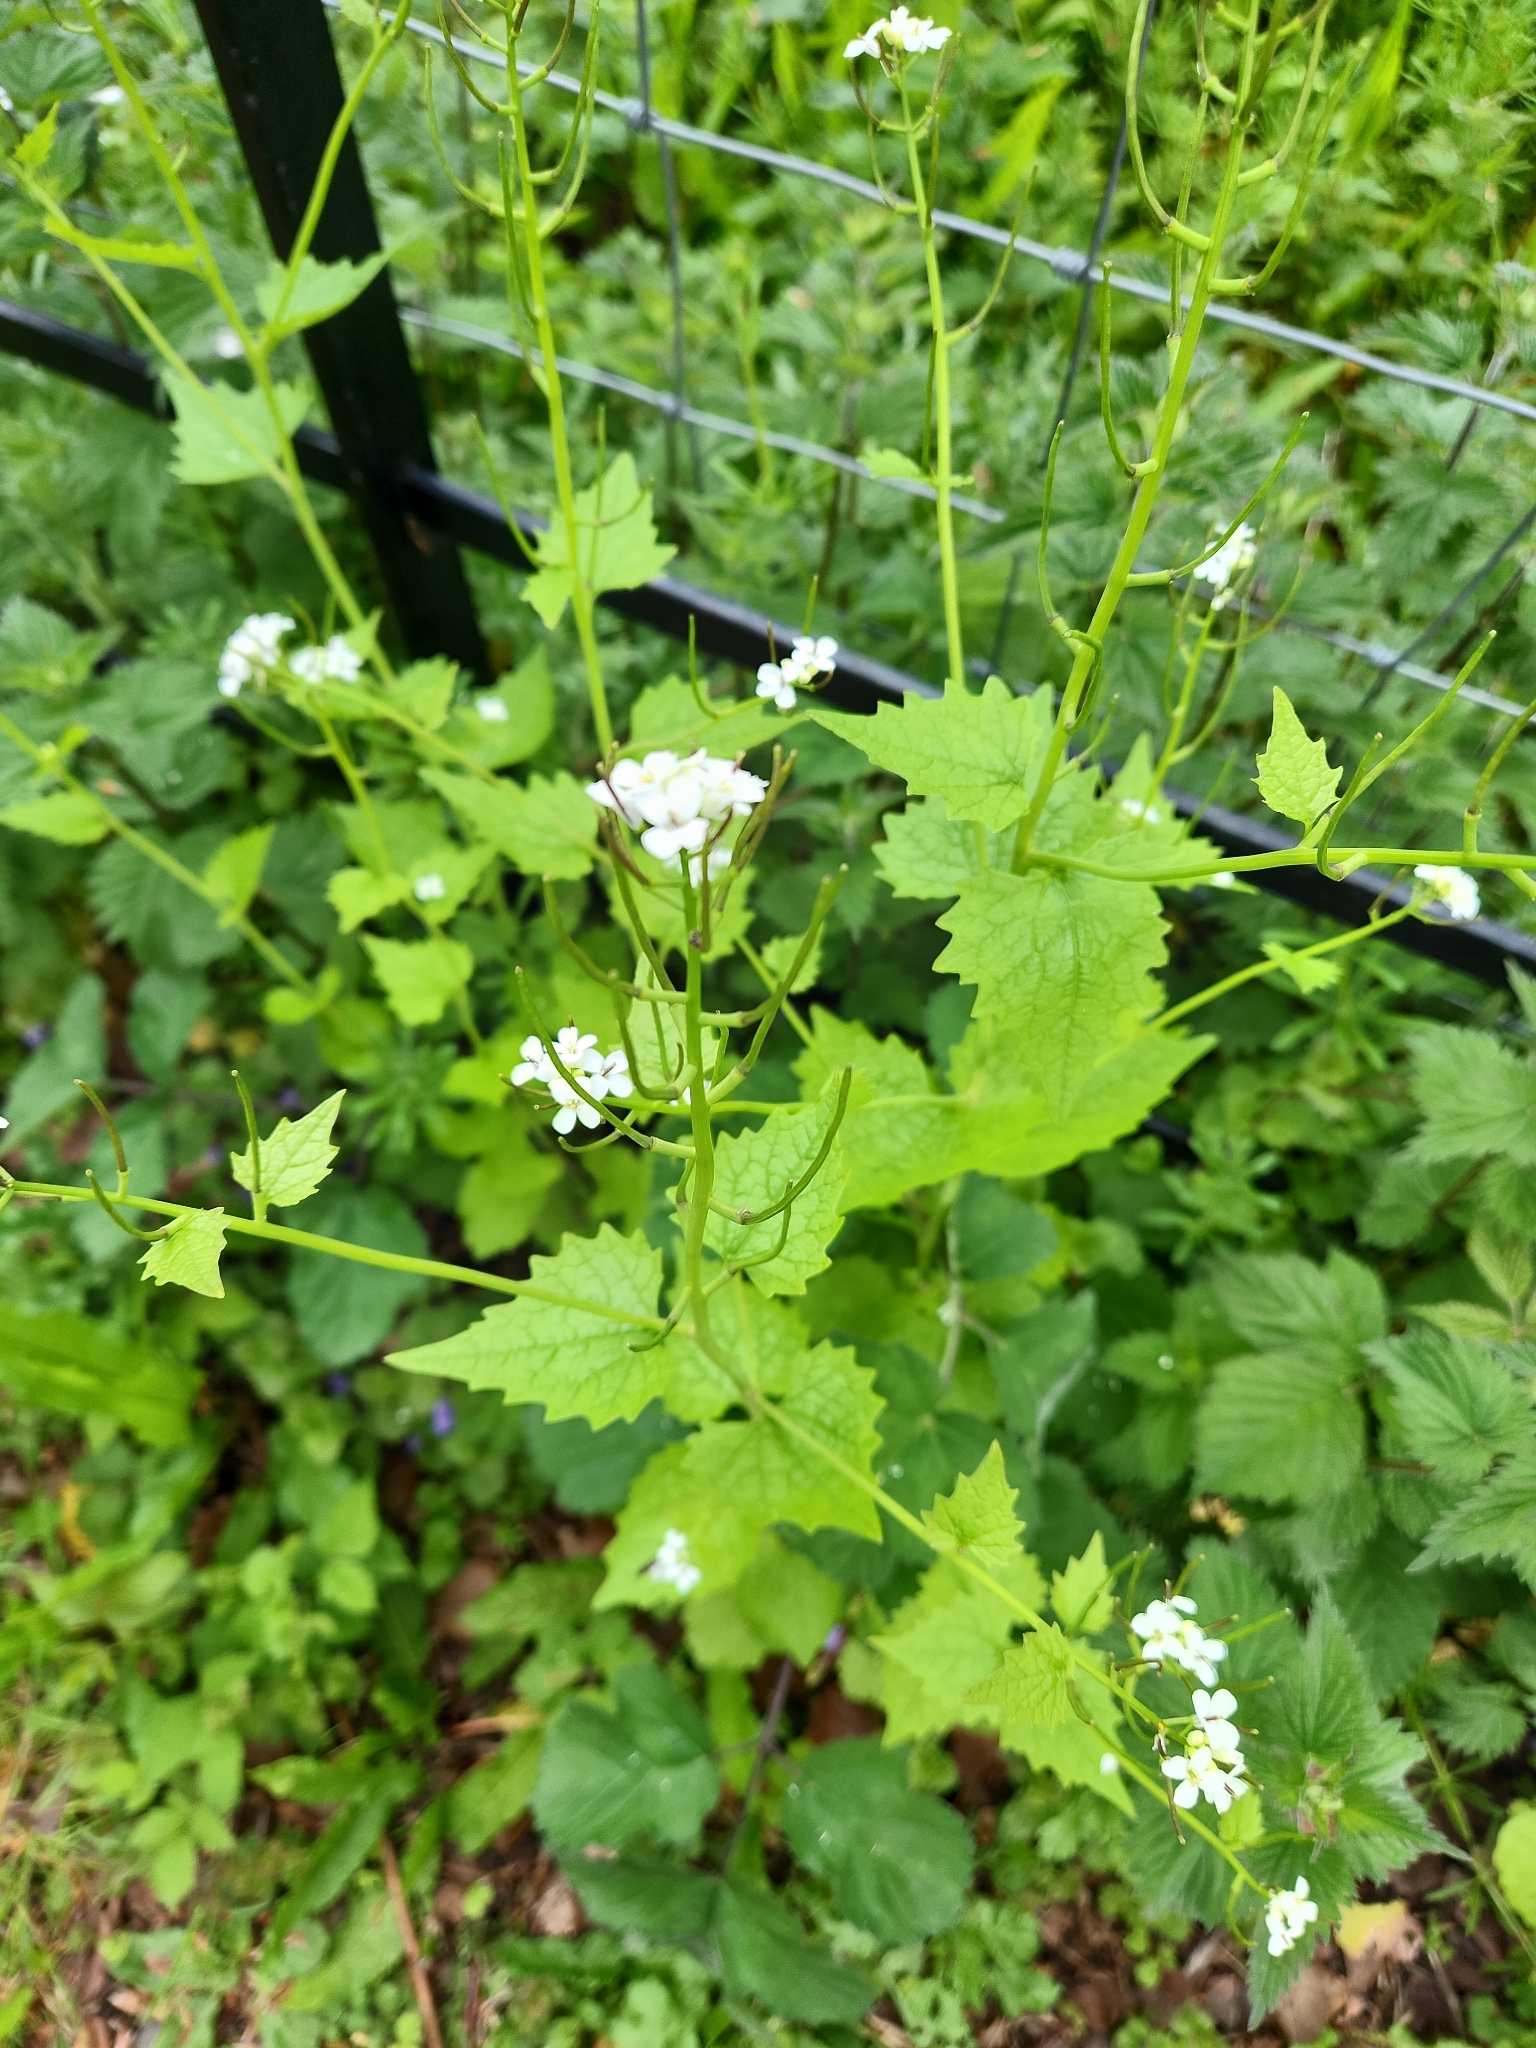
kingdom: Plantae
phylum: Tracheophyta
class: Magnoliopsida
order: Brassicales
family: Brassicaceae
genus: Alliaria
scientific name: Alliaria petiolata
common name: Garlic mustard
